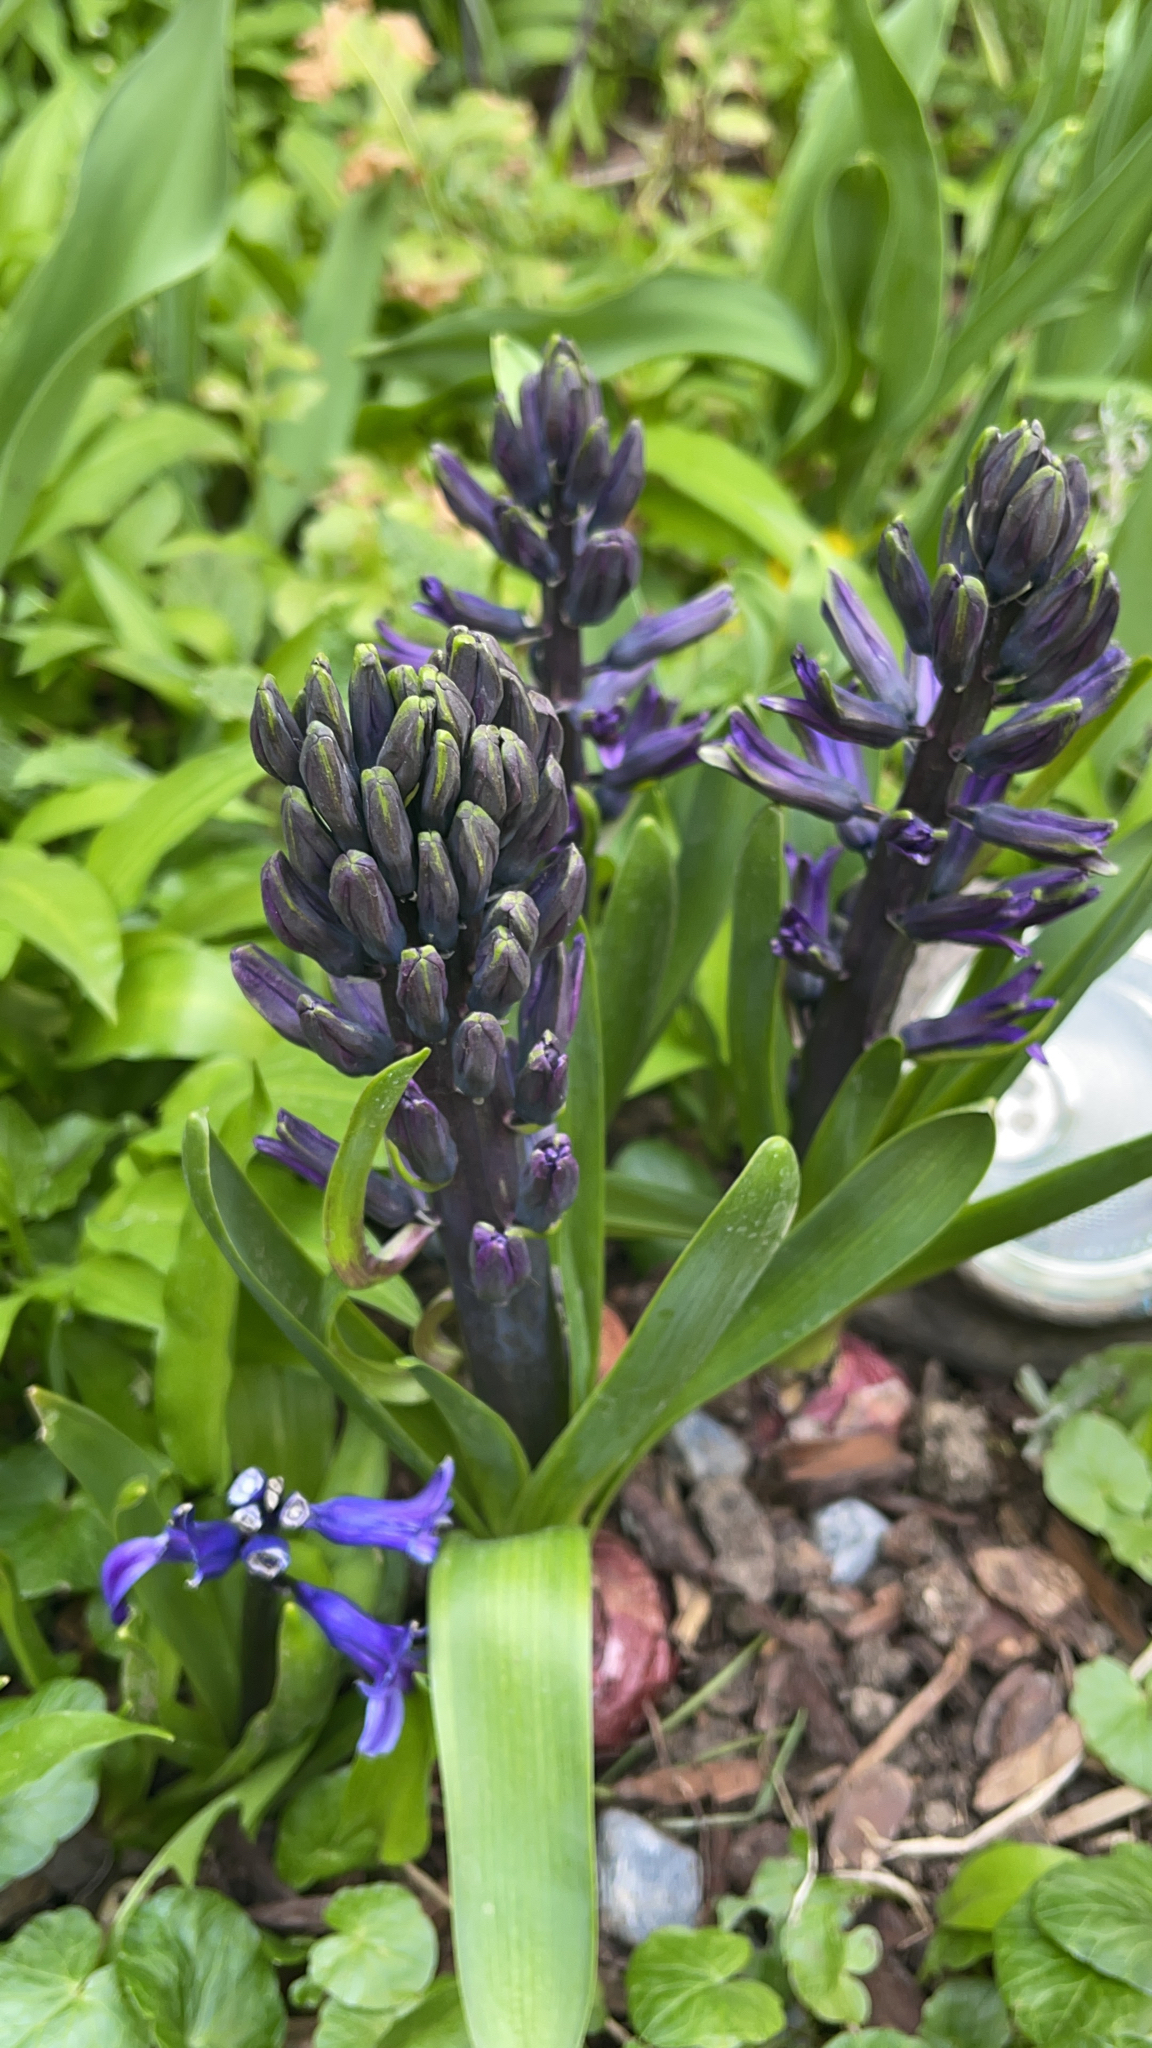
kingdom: Plantae
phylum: Tracheophyta
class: Liliopsida
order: Asparagales
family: Asparagaceae
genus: Hyacinthus
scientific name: Hyacinthus orientalis
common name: Hyacinth
